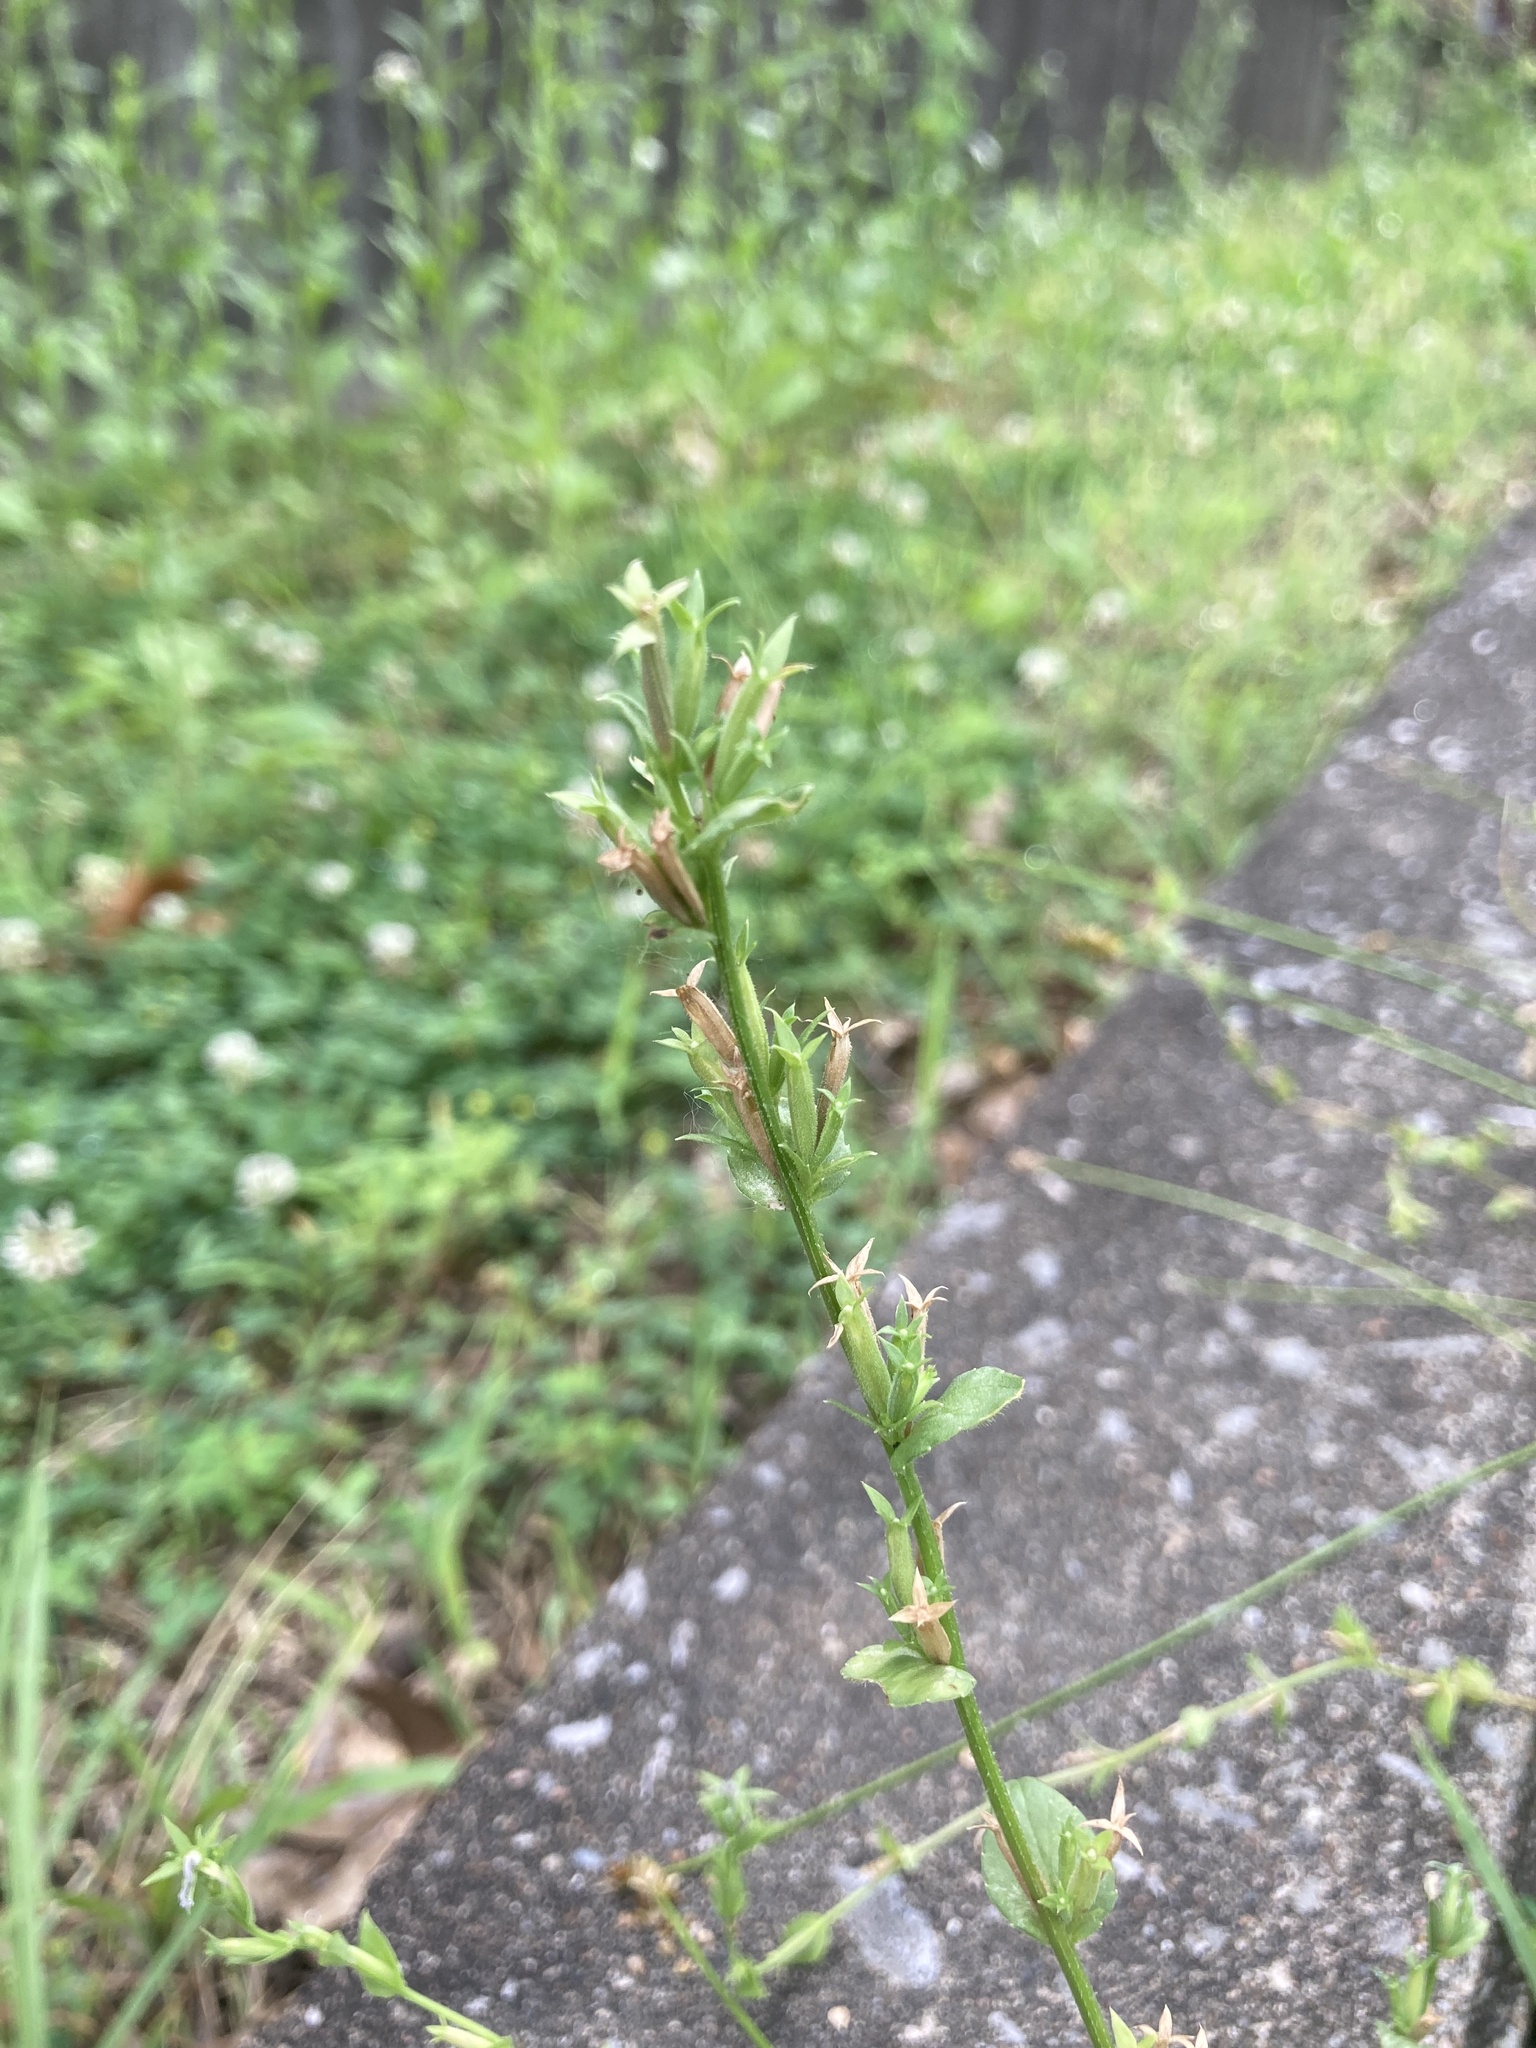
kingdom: Plantae
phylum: Tracheophyta
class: Magnoliopsida
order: Asterales
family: Campanulaceae
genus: Triodanis
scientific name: Triodanis biflora
